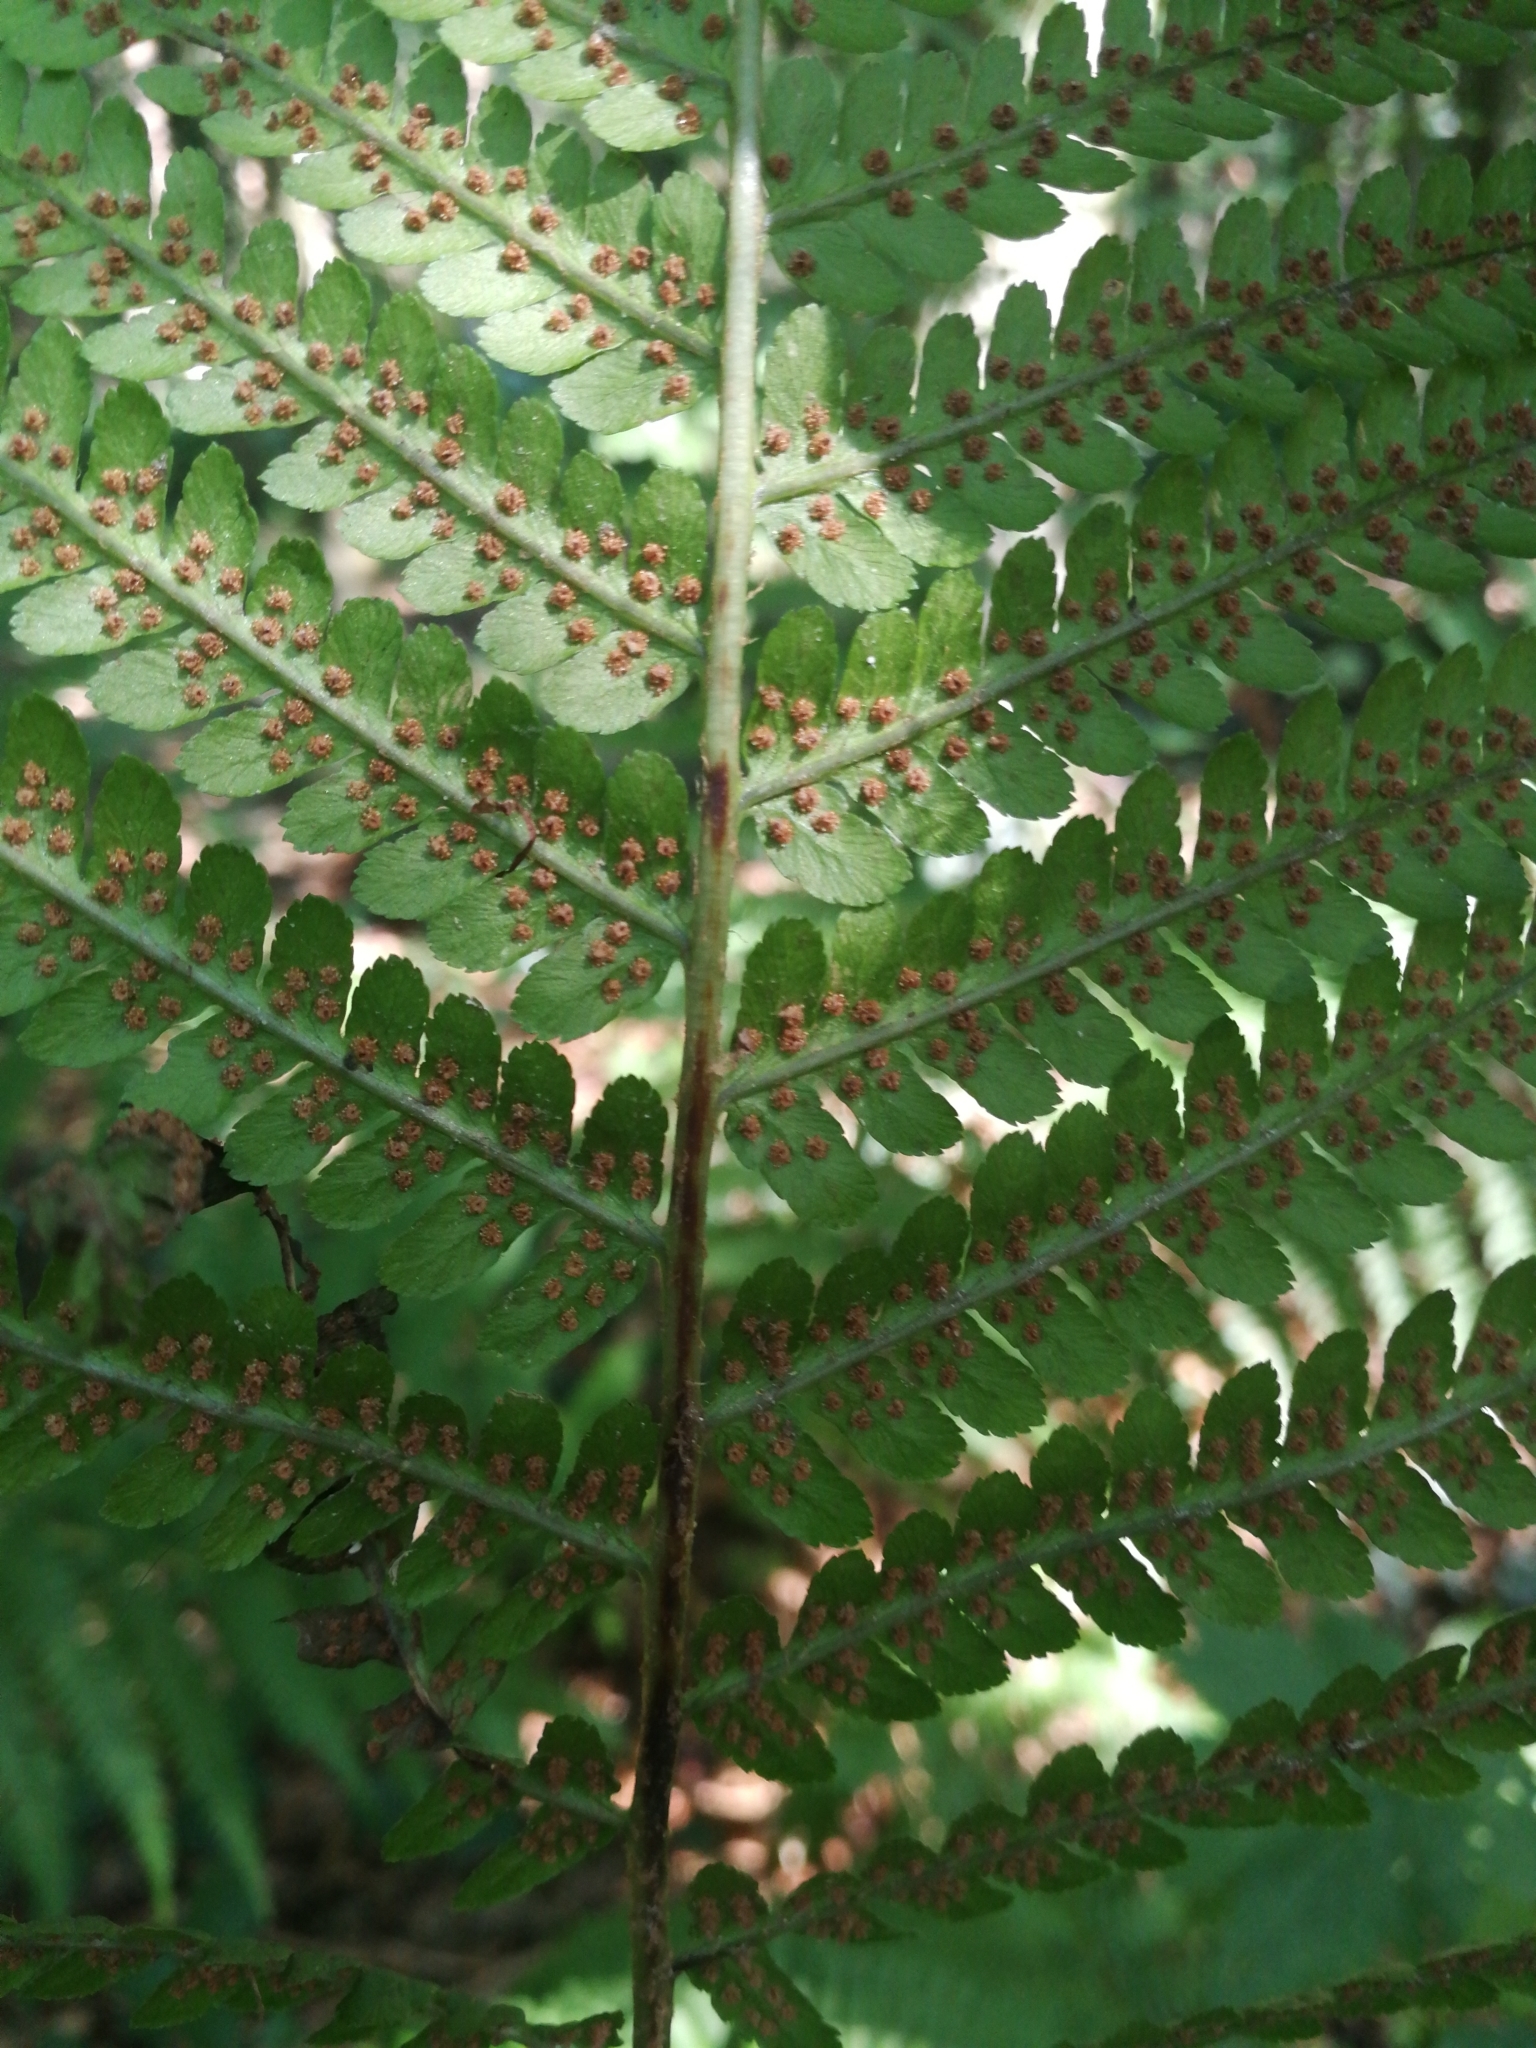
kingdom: Plantae
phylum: Tracheophyta
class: Polypodiopsida
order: Polypodiales
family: Dryopteridaceae
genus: Dryopteris
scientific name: Dryopteris filix-mas
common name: Male fern
